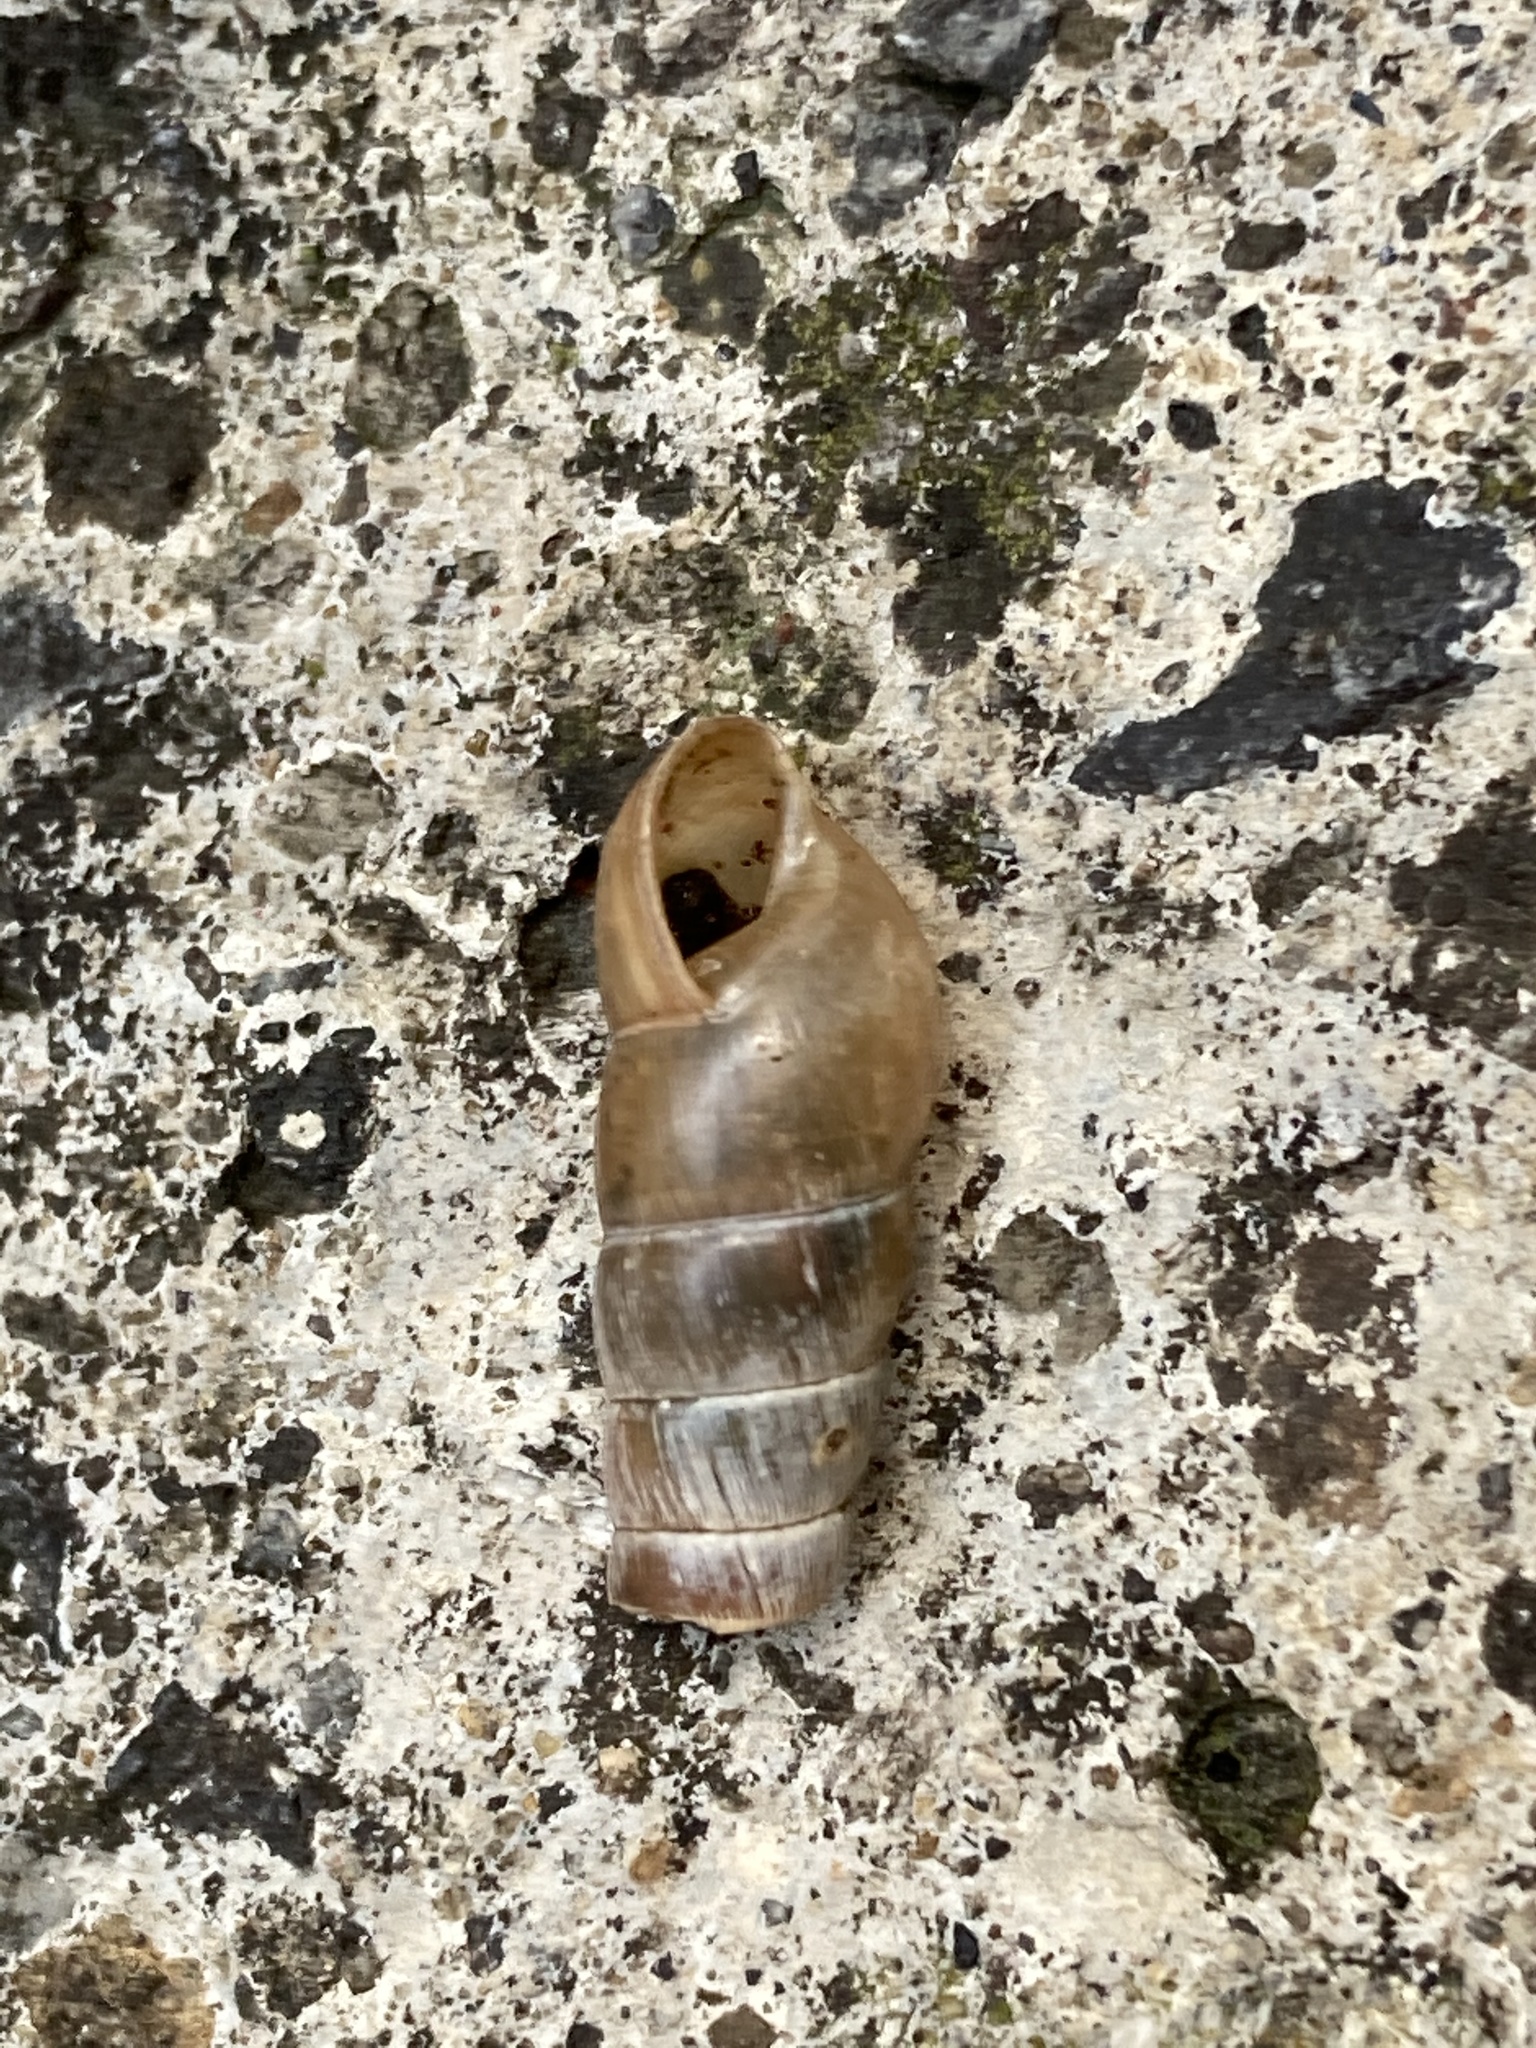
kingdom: Animalia
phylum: Mollusca
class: Gastropoda
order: Stylommatophora
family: Achatinidae
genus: Rumina
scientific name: Rumina decollata
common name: Decollate snail
